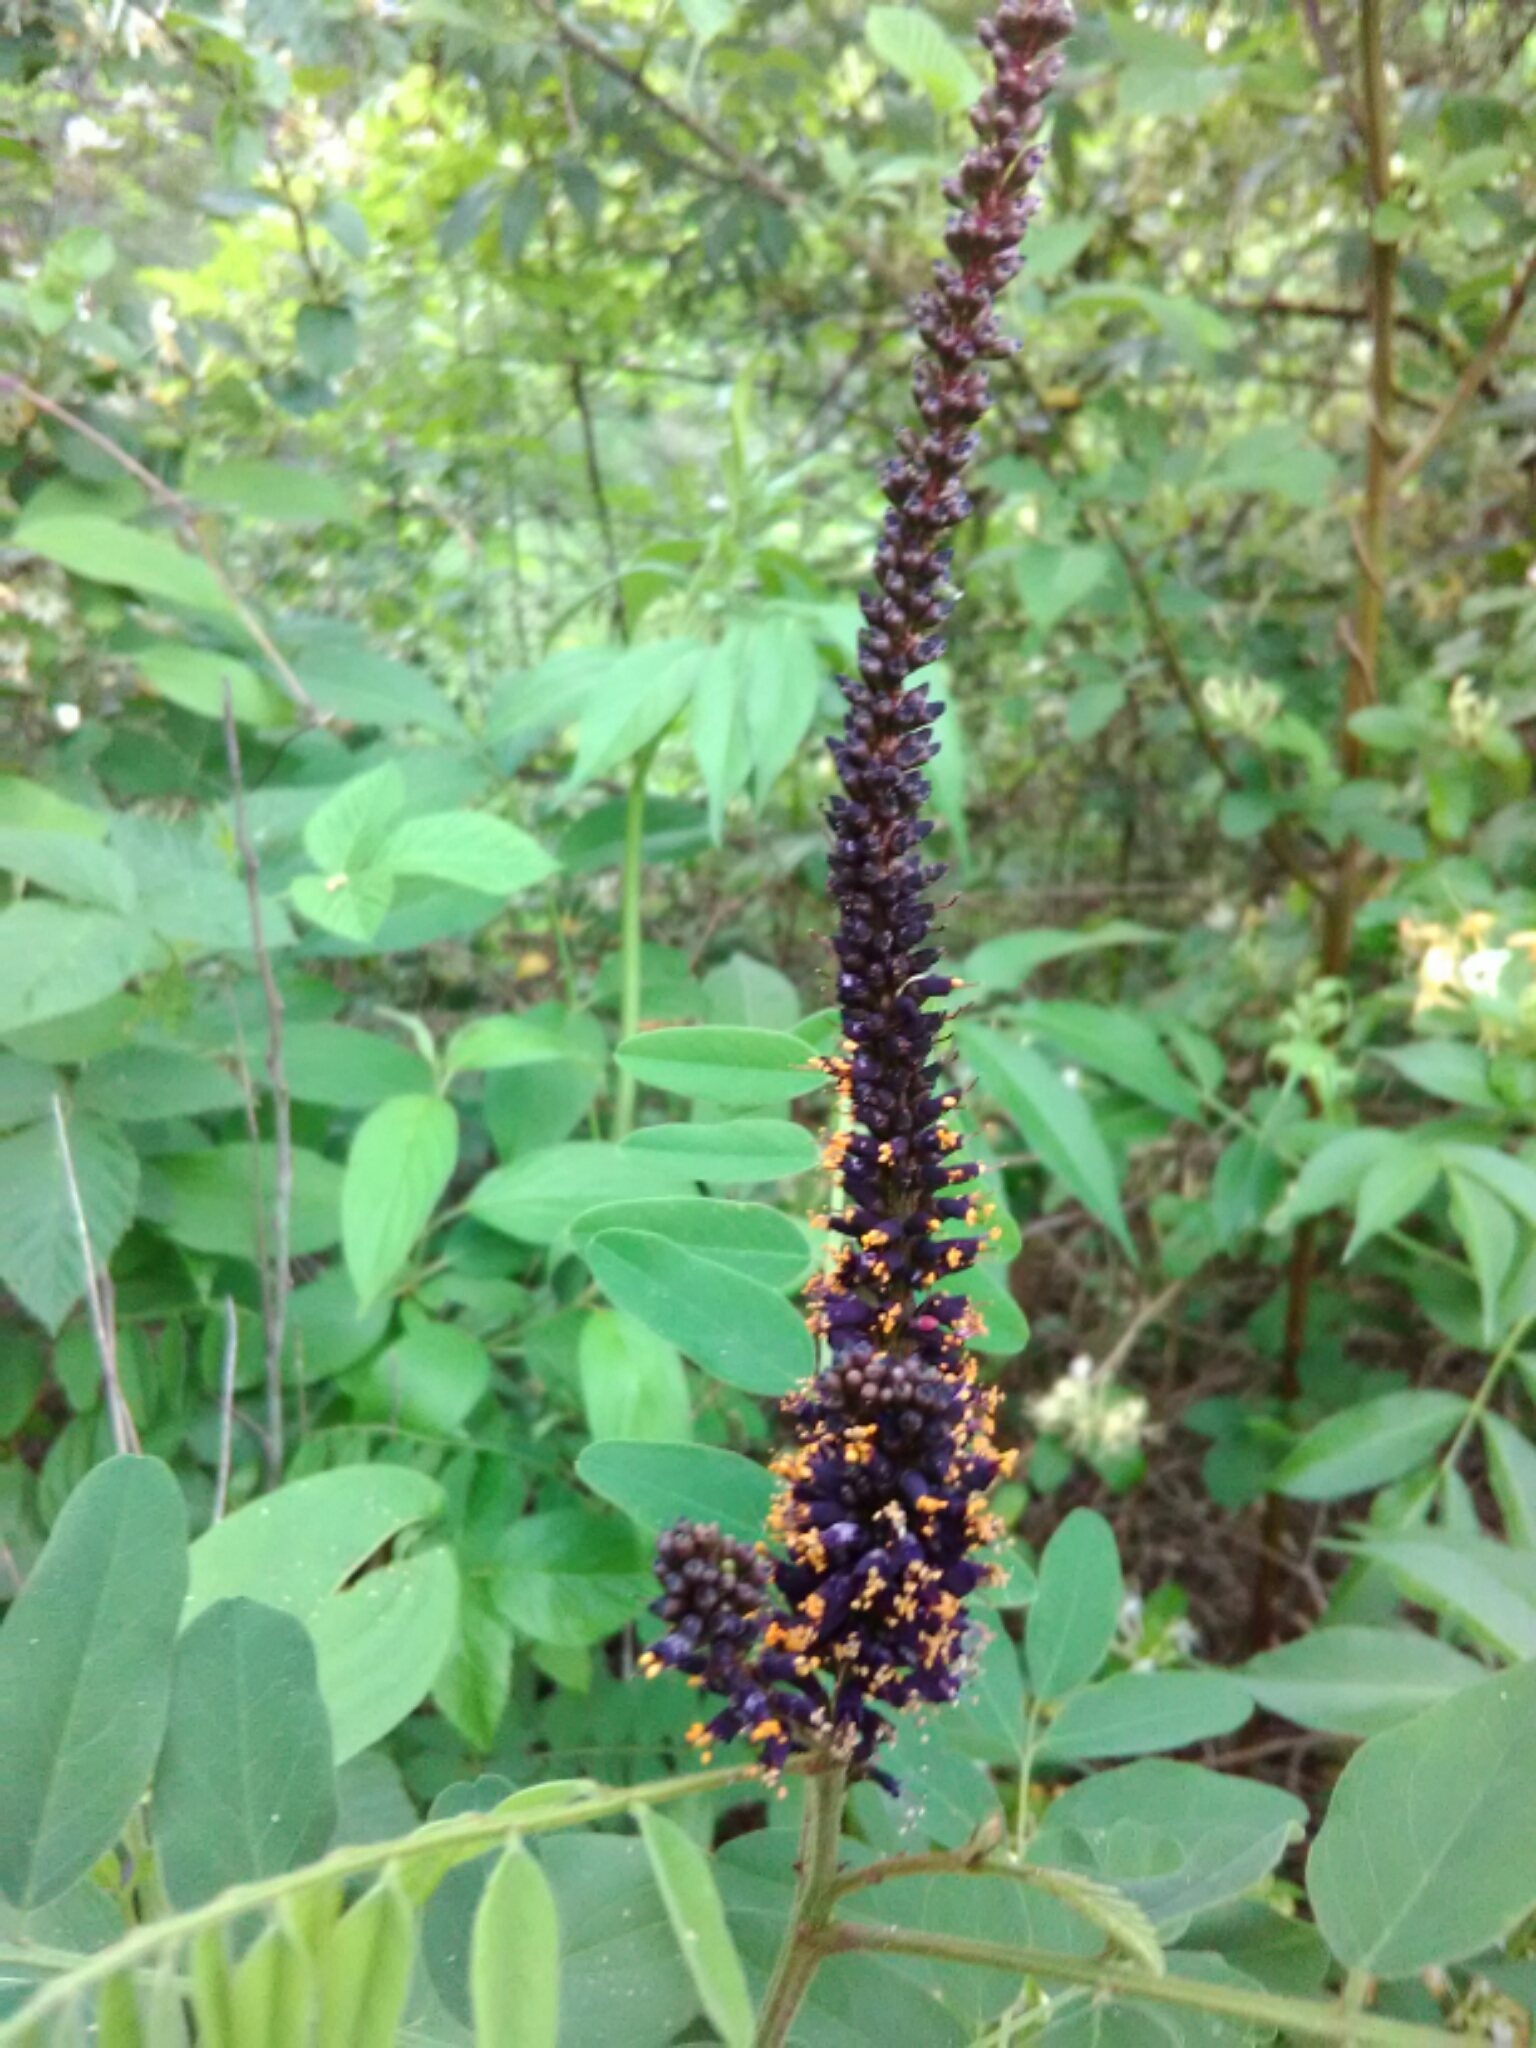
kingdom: Plantae
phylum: Tracheophyta
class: Magnoliopsida
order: Fabales
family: Fabaceae
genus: Amorpha
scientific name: Amorpha fruticosa
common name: False indigo
